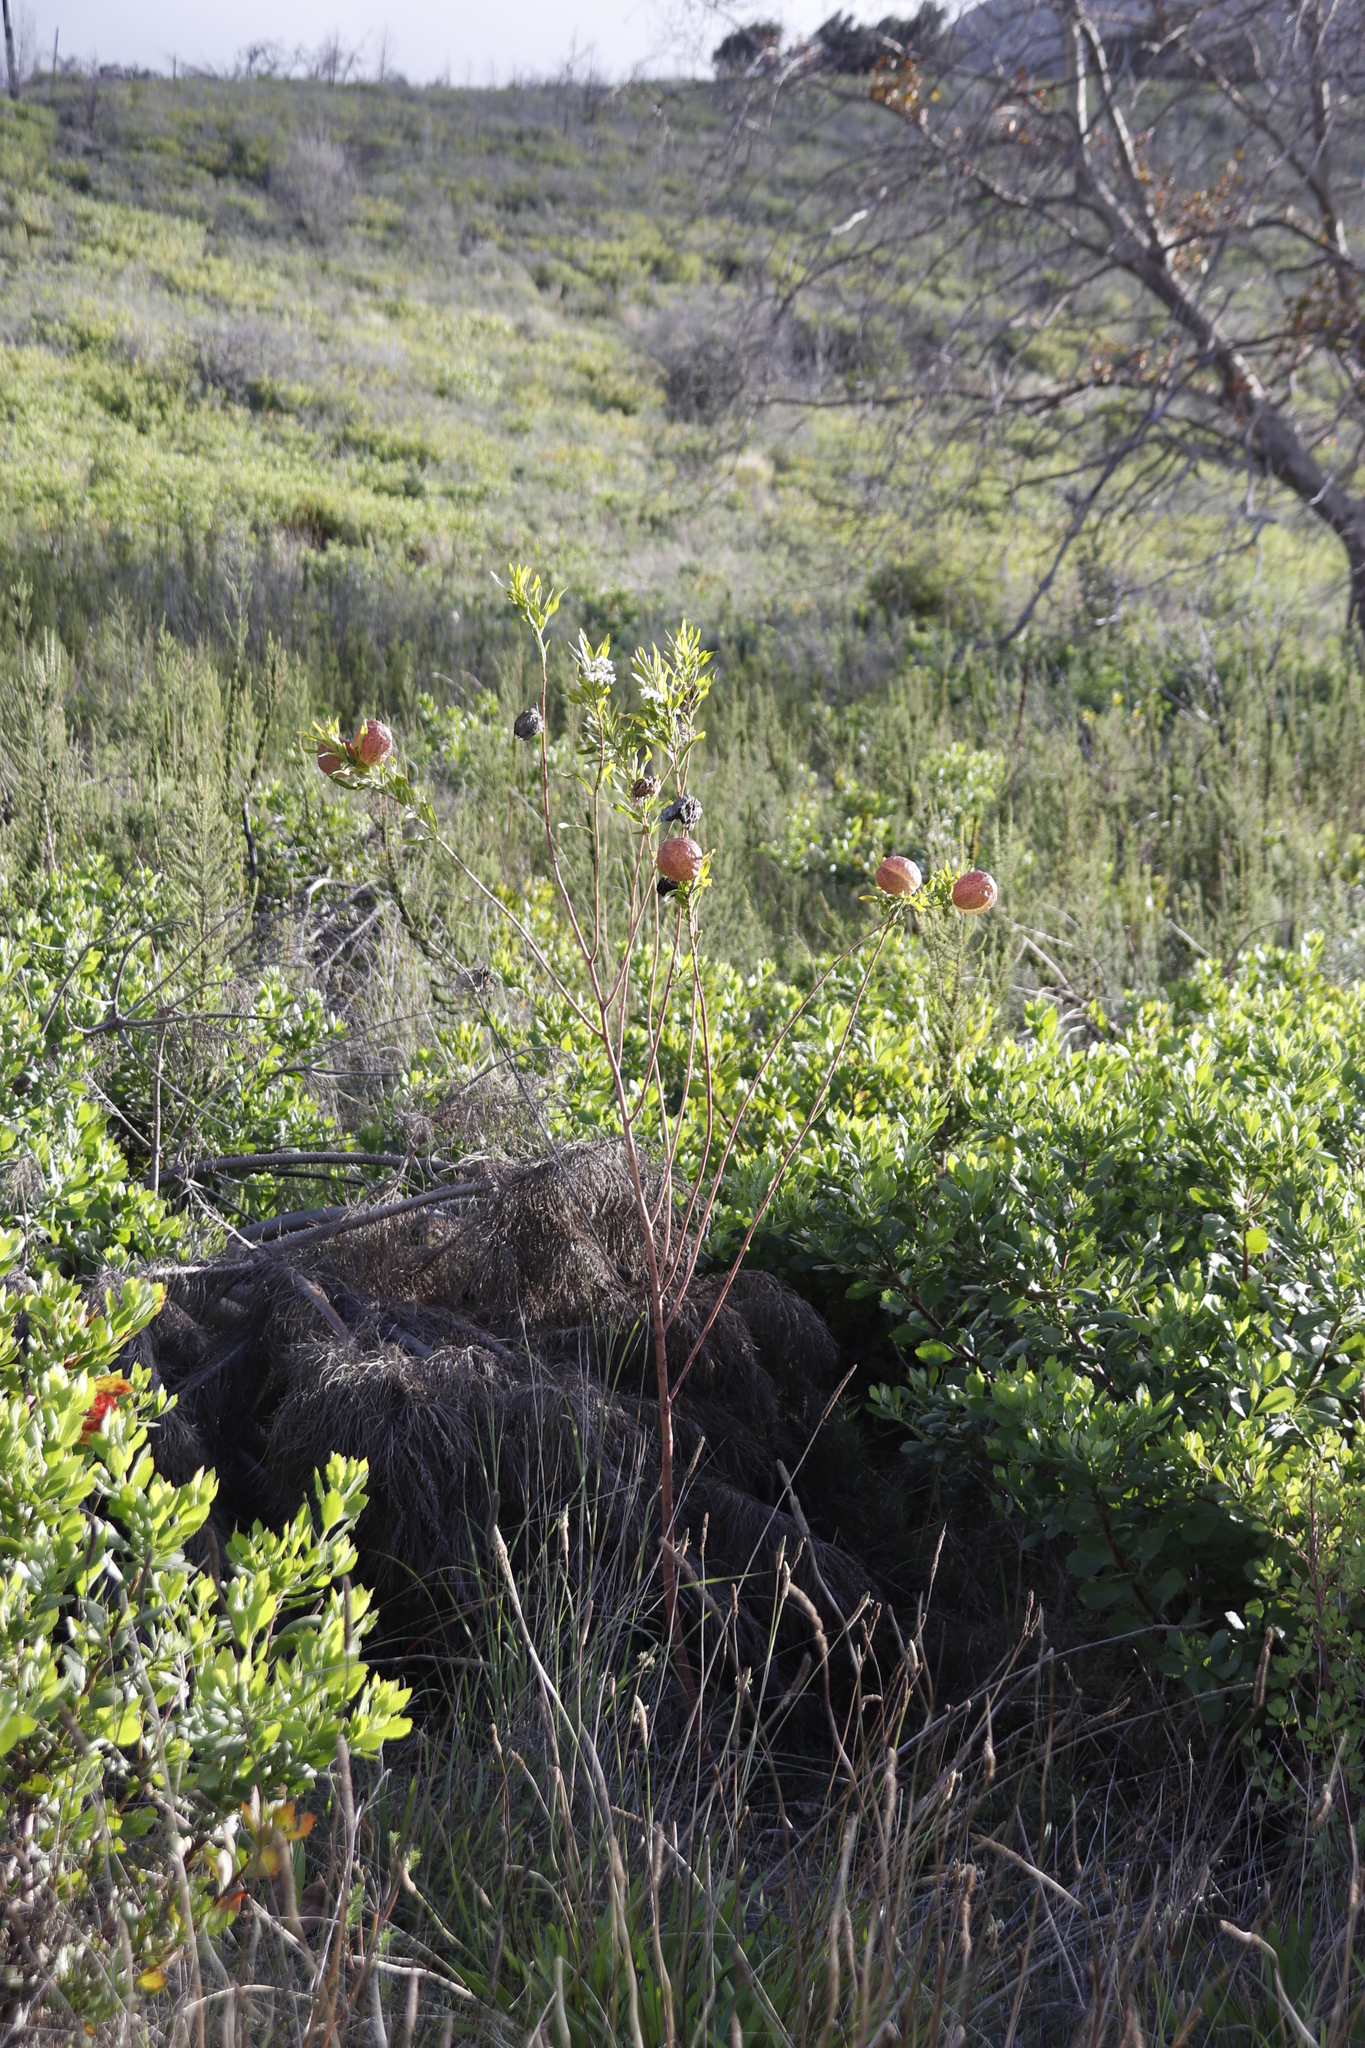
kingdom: Plantae
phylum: Tracheophyta
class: Magnoliopsida
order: Gentianales
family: Apocynaceae
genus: Gomphocarpus
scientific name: Gomphocarpus physocarpus
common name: Balloon cotton bush
